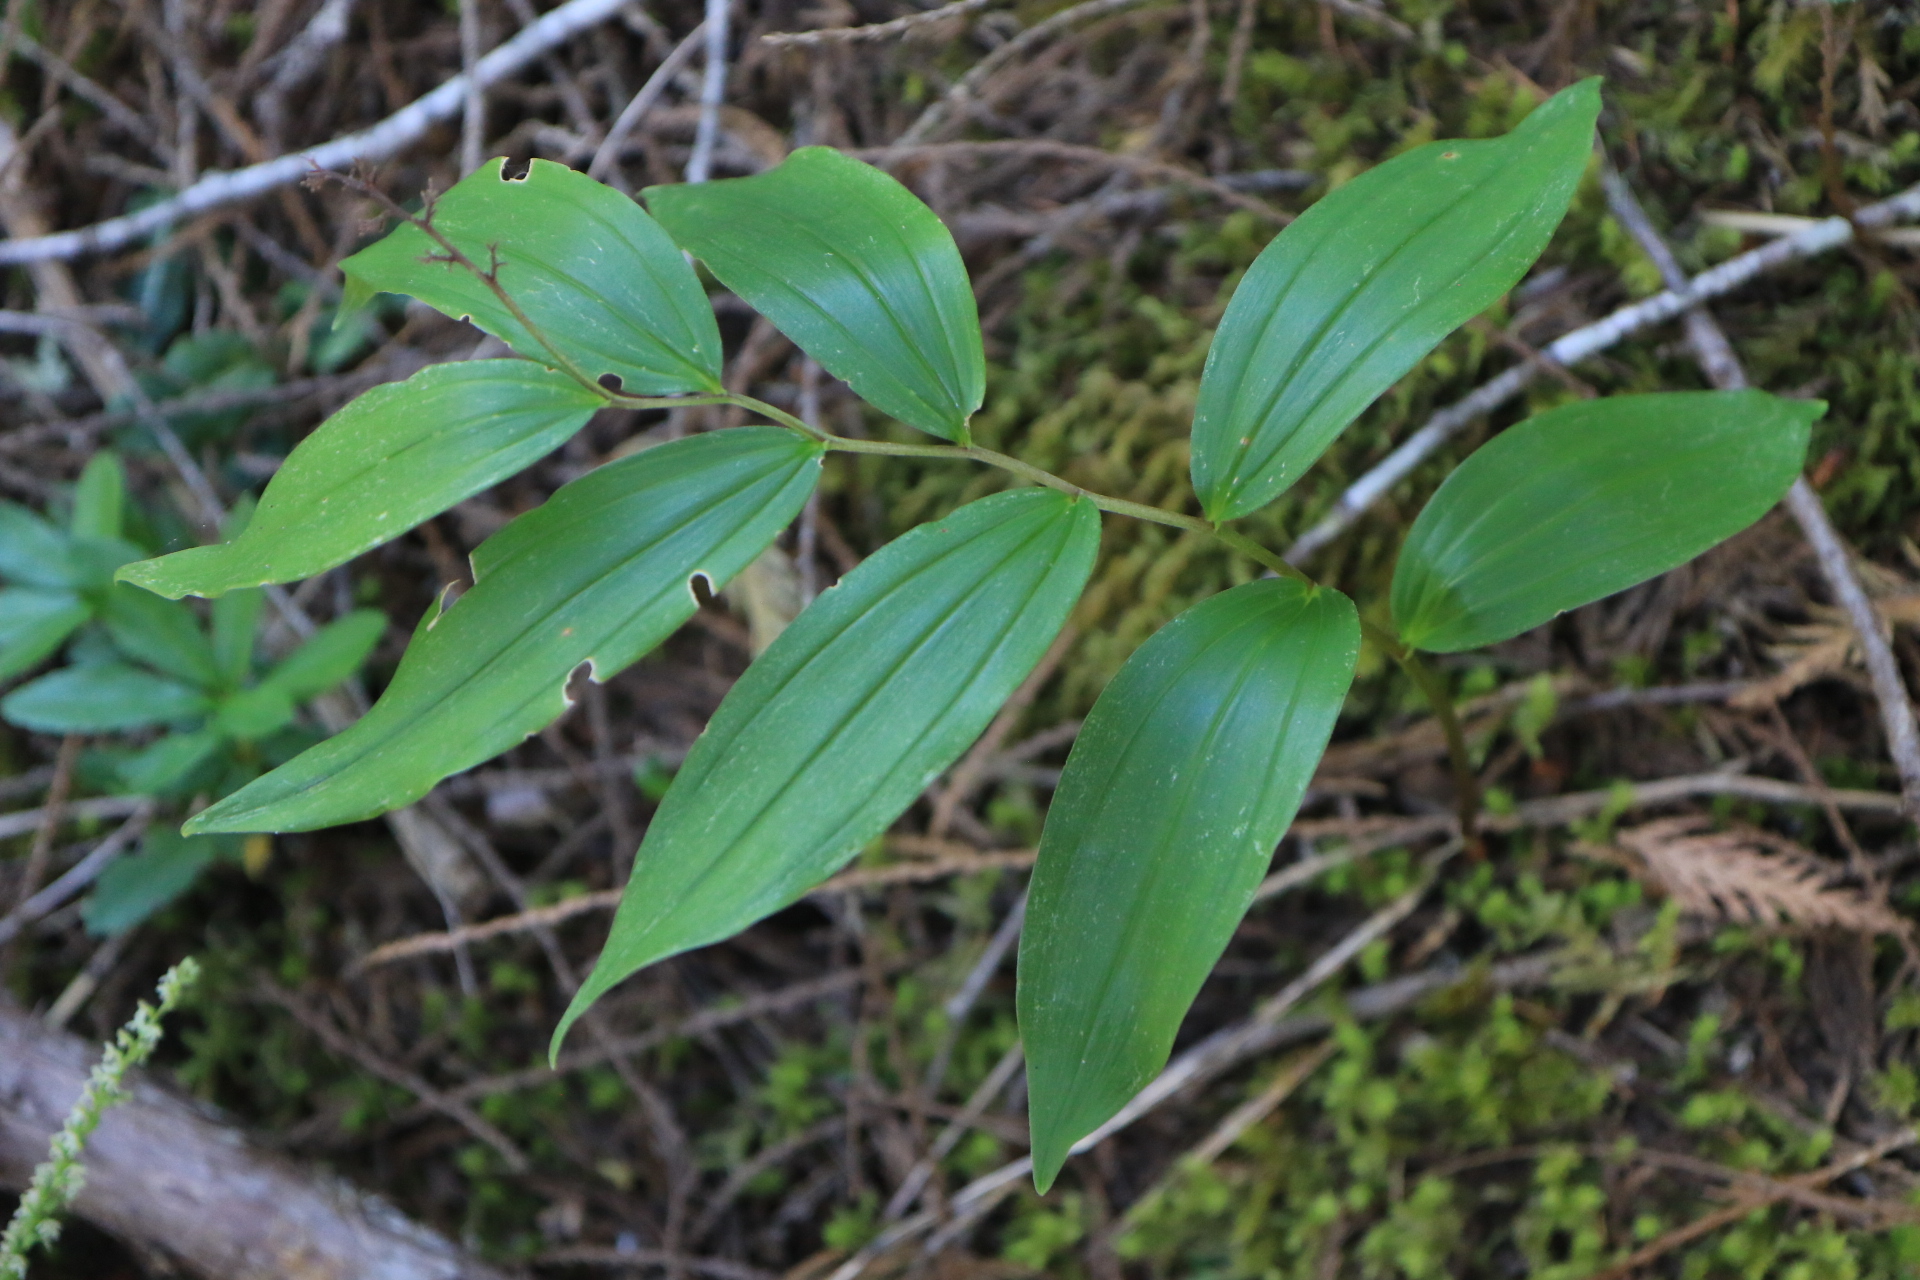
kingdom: Plantae
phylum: Tracheophyta
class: Liliopsida
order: Asparagales
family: Asparagaceae
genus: Maianthemum
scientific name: Maianthemum racemosum
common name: False spikenard
